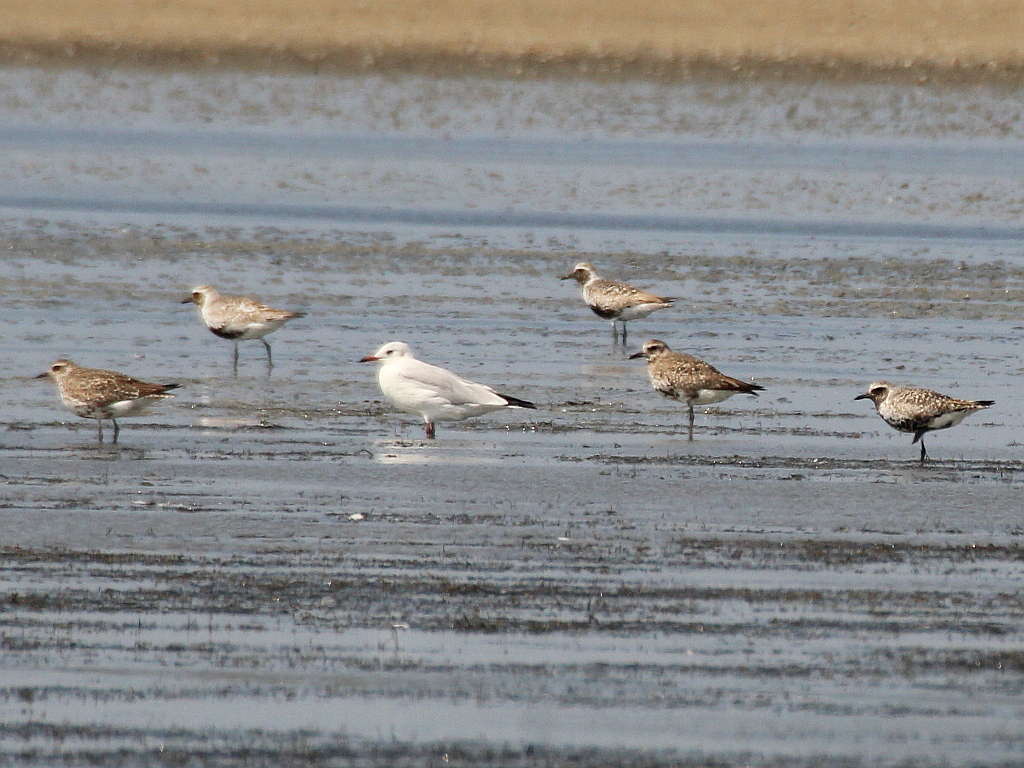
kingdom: Animalia
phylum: Chordata
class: Aves
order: Charadriiformes
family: Charadriidae
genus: Pluvialis
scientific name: Pluvialis squatarola
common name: Grey plover
